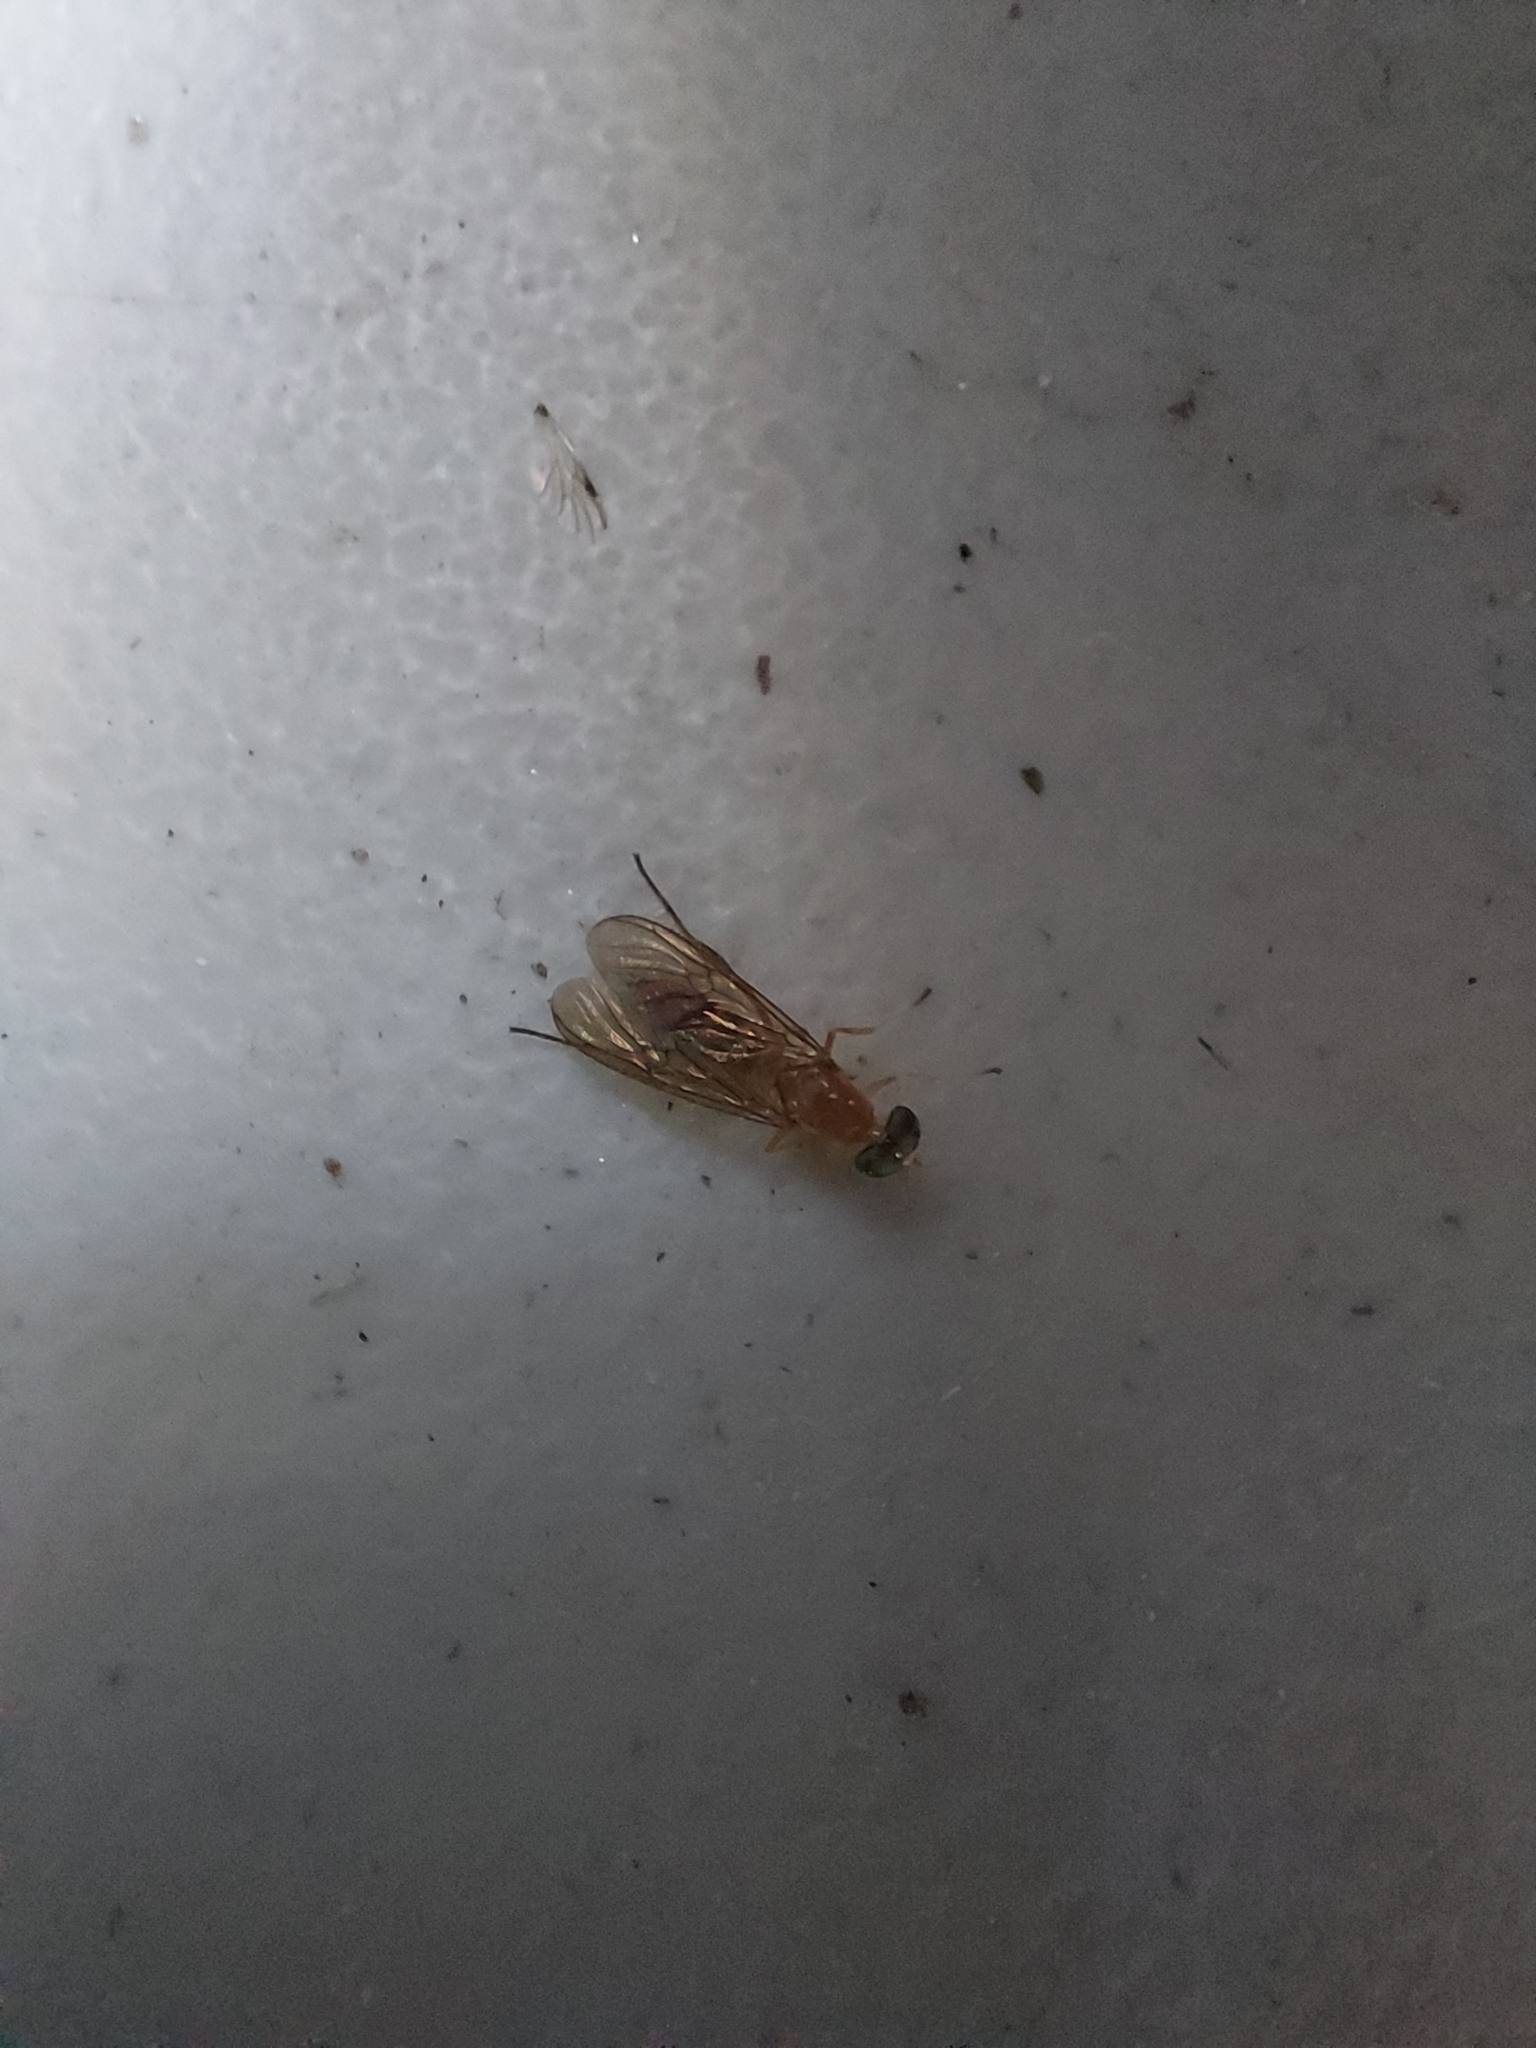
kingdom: Animalia
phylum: Arthropoda
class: Insecta
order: Diptera
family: Stratiomyidae
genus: Ptecticus
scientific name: Ptecticus trivittatus
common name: Compost fly
